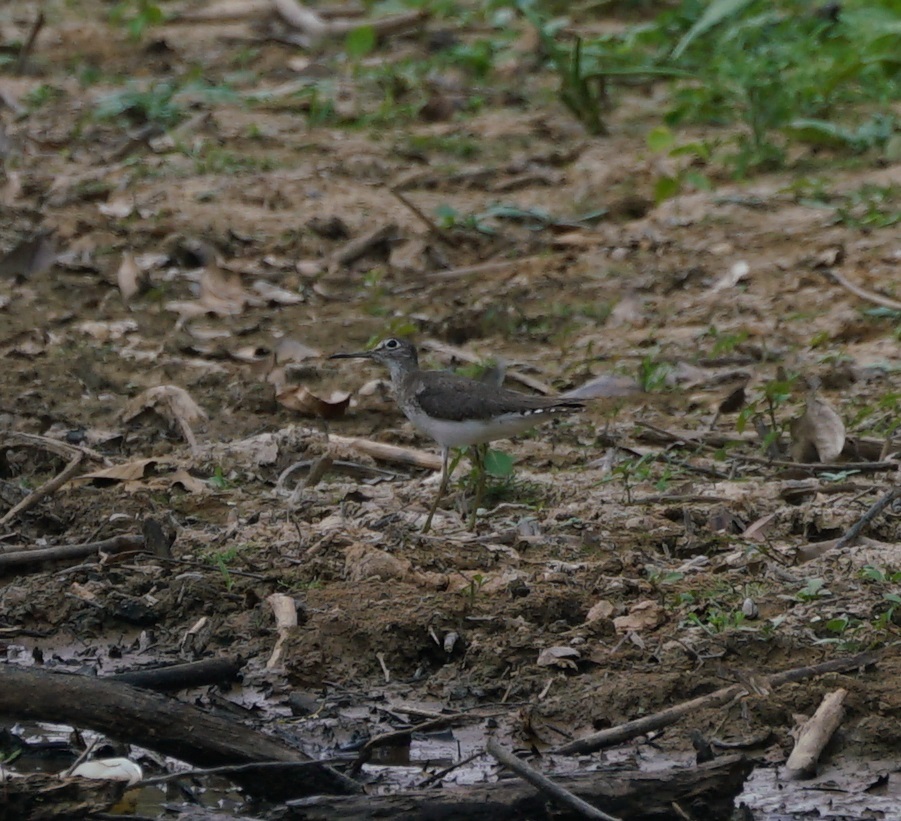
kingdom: Animalia
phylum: Chordata
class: Aves
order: Charadriiformes
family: Scolopacidae
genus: Tringa
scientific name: Tringa solitaria
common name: Solitary sandpiper
